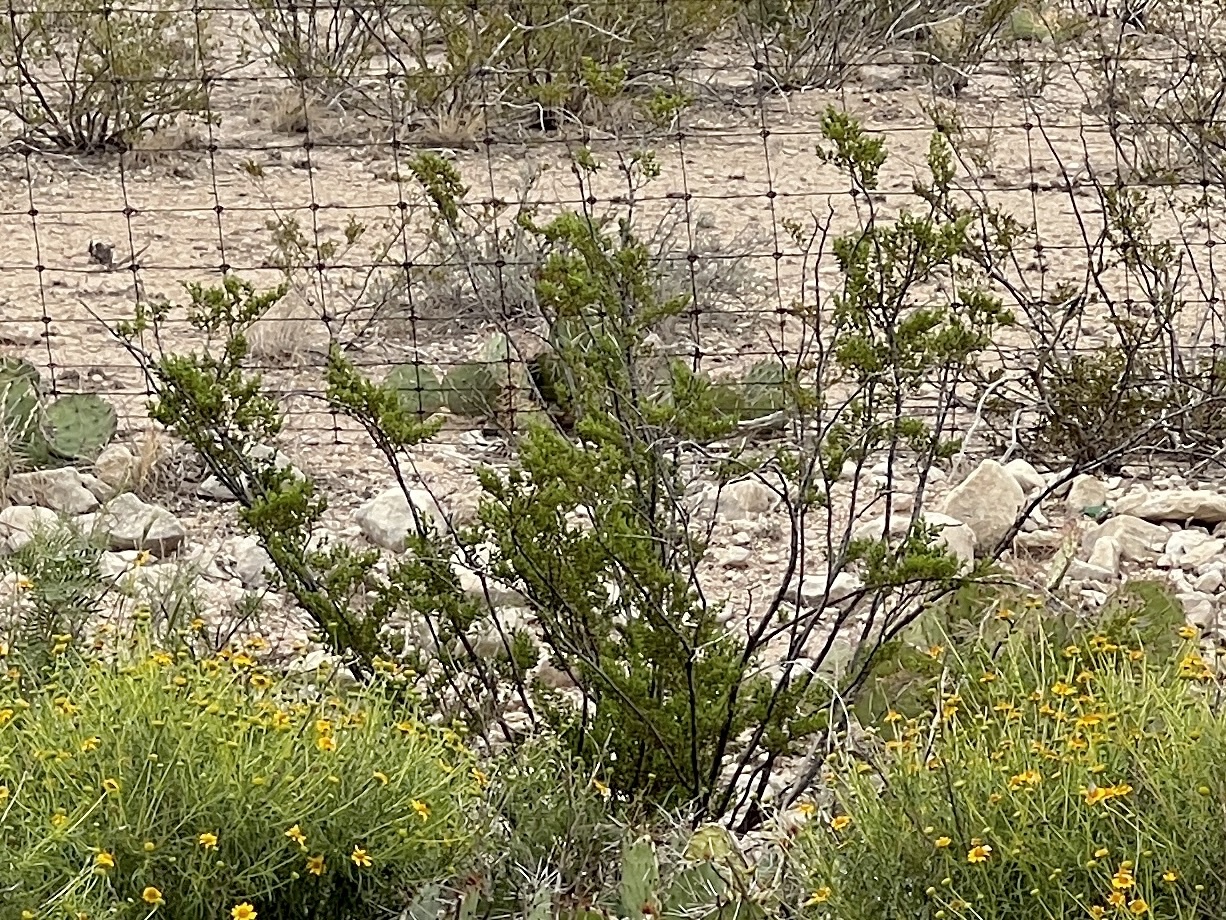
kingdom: Plantae
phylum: Tracheophyta
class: Magnoliopsida
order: Zygophyllales
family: Zygophyllaceae
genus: Larrea
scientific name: Larrea tridentata
